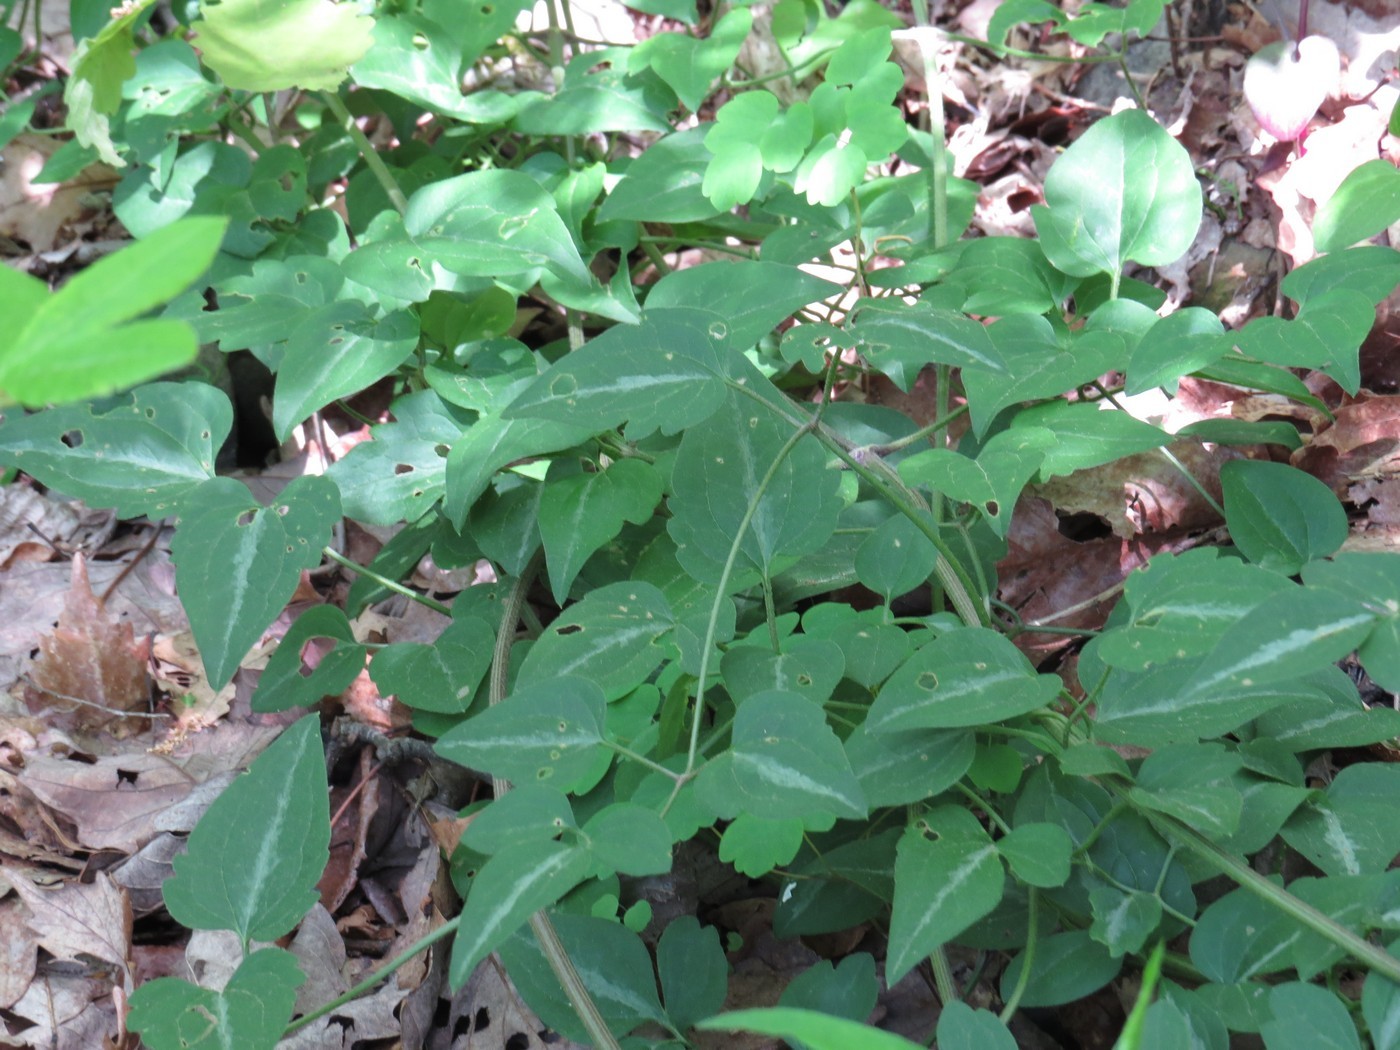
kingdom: Plantae
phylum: Tracheophyta
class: Magnoliopsida
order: Ranunculales
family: Ranunculaceae
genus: Clematis
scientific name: Clematis terniflora
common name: Sweet autumn clematis
